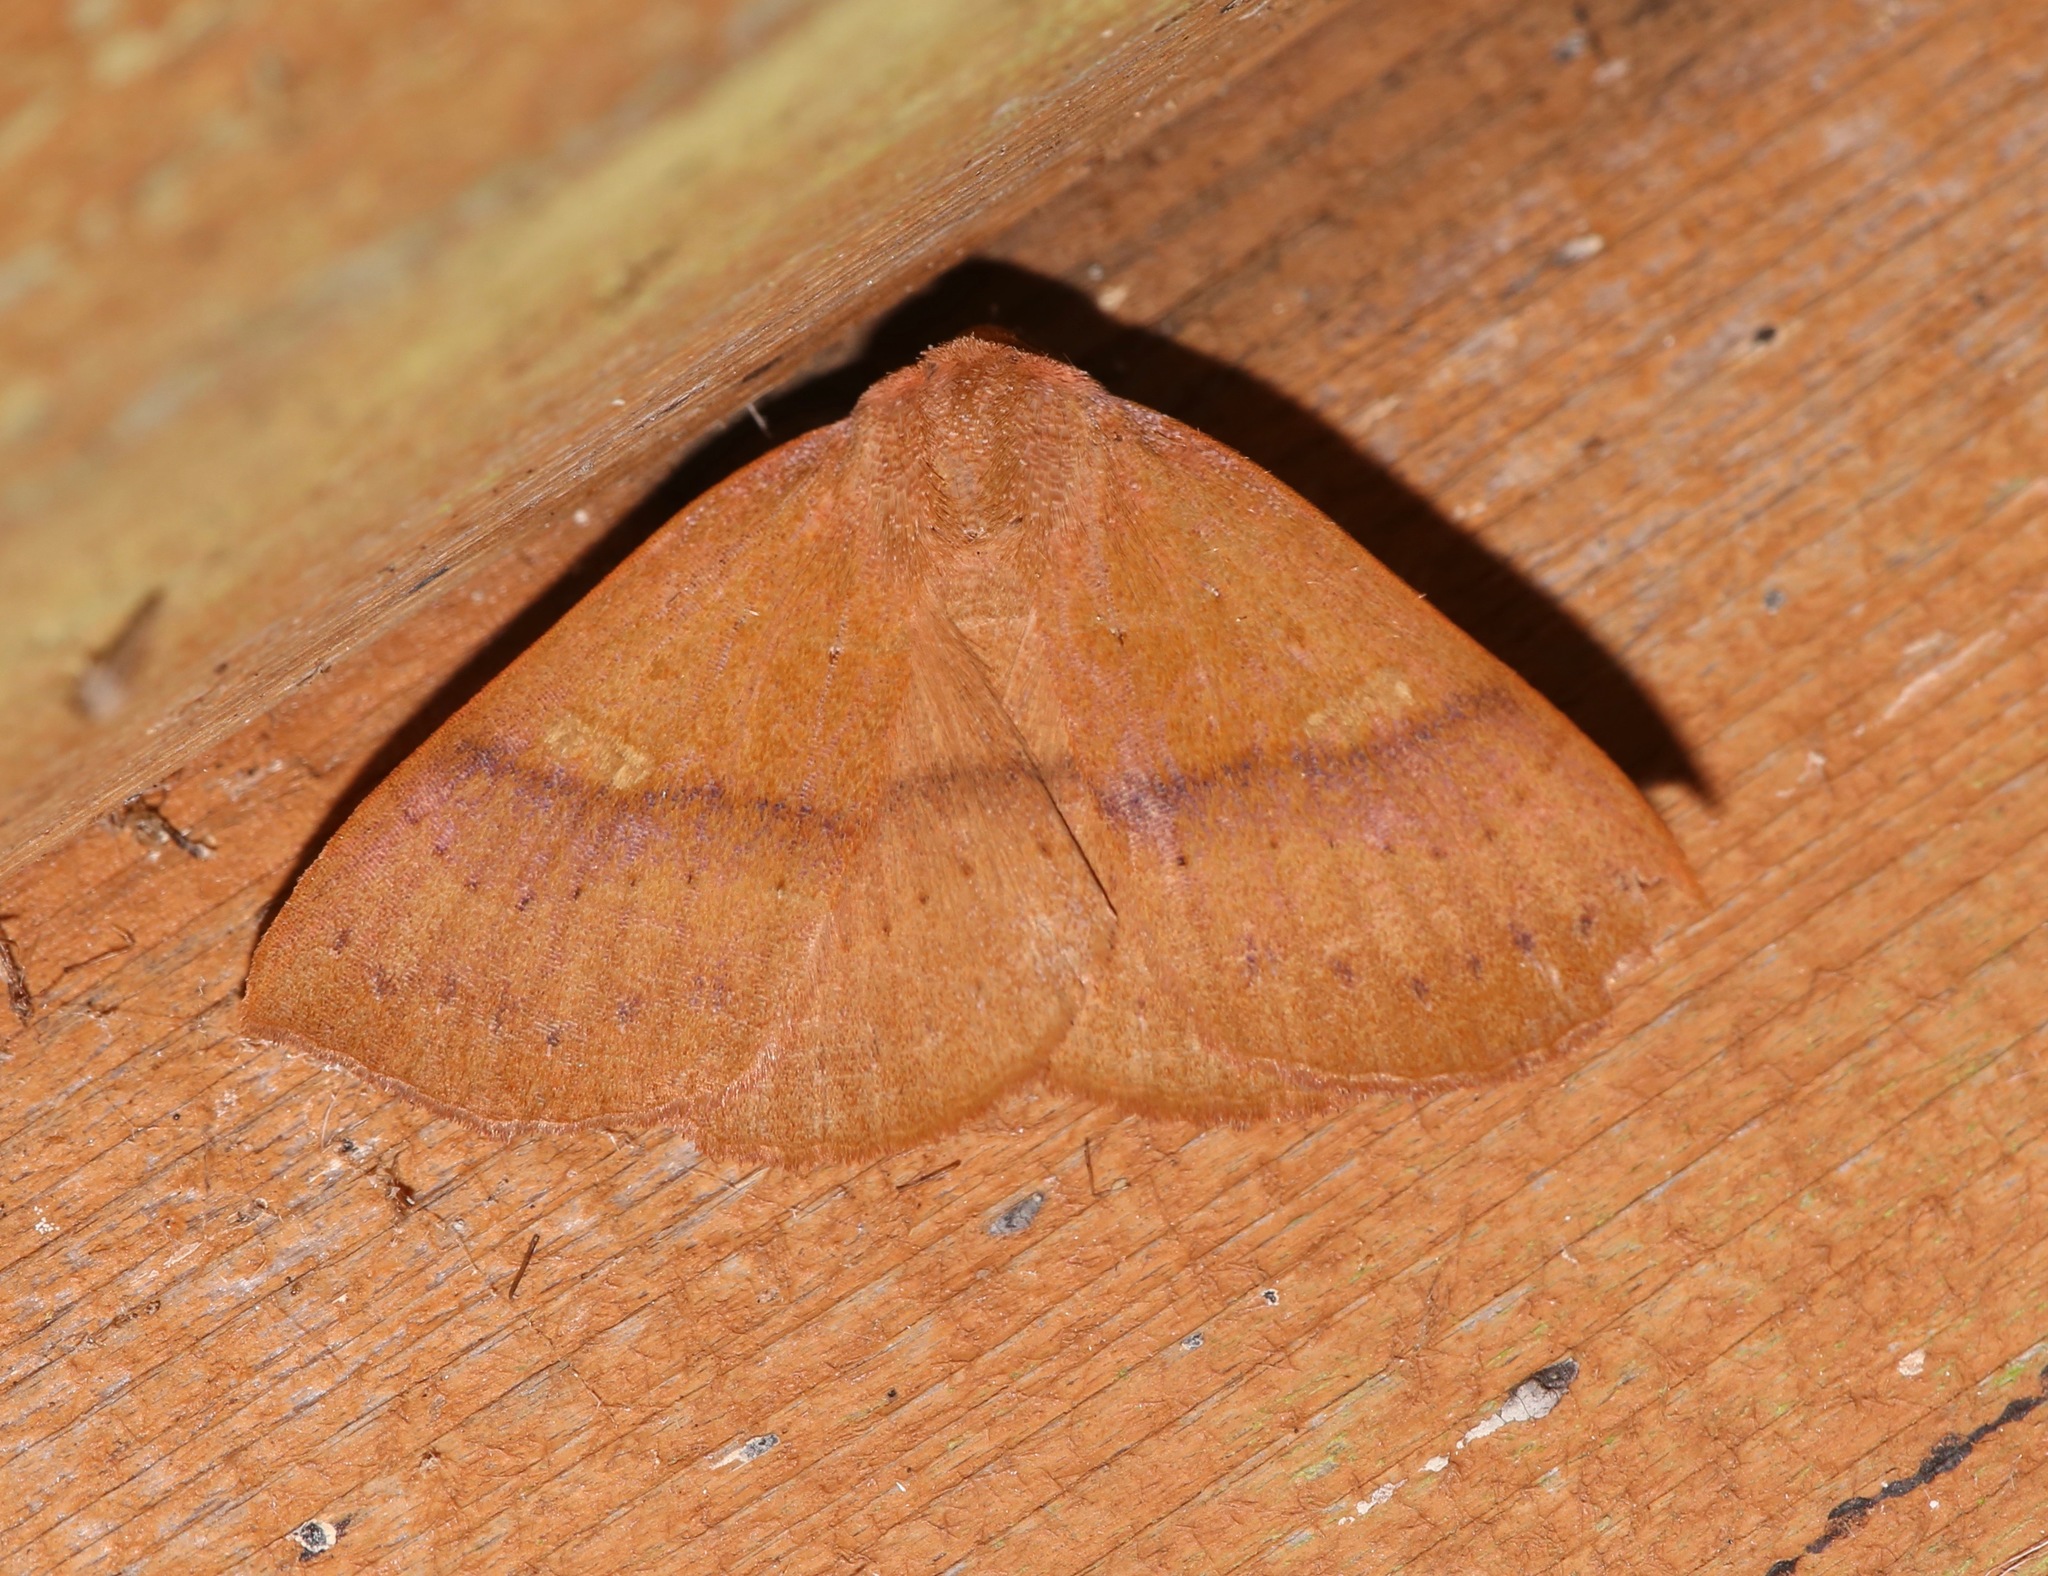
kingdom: Animalia
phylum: Arthropoda
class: Insecta
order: Lepidoptera
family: Erebidae
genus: Panopoda
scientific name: Panopoda repanda
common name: Orange panopoda
